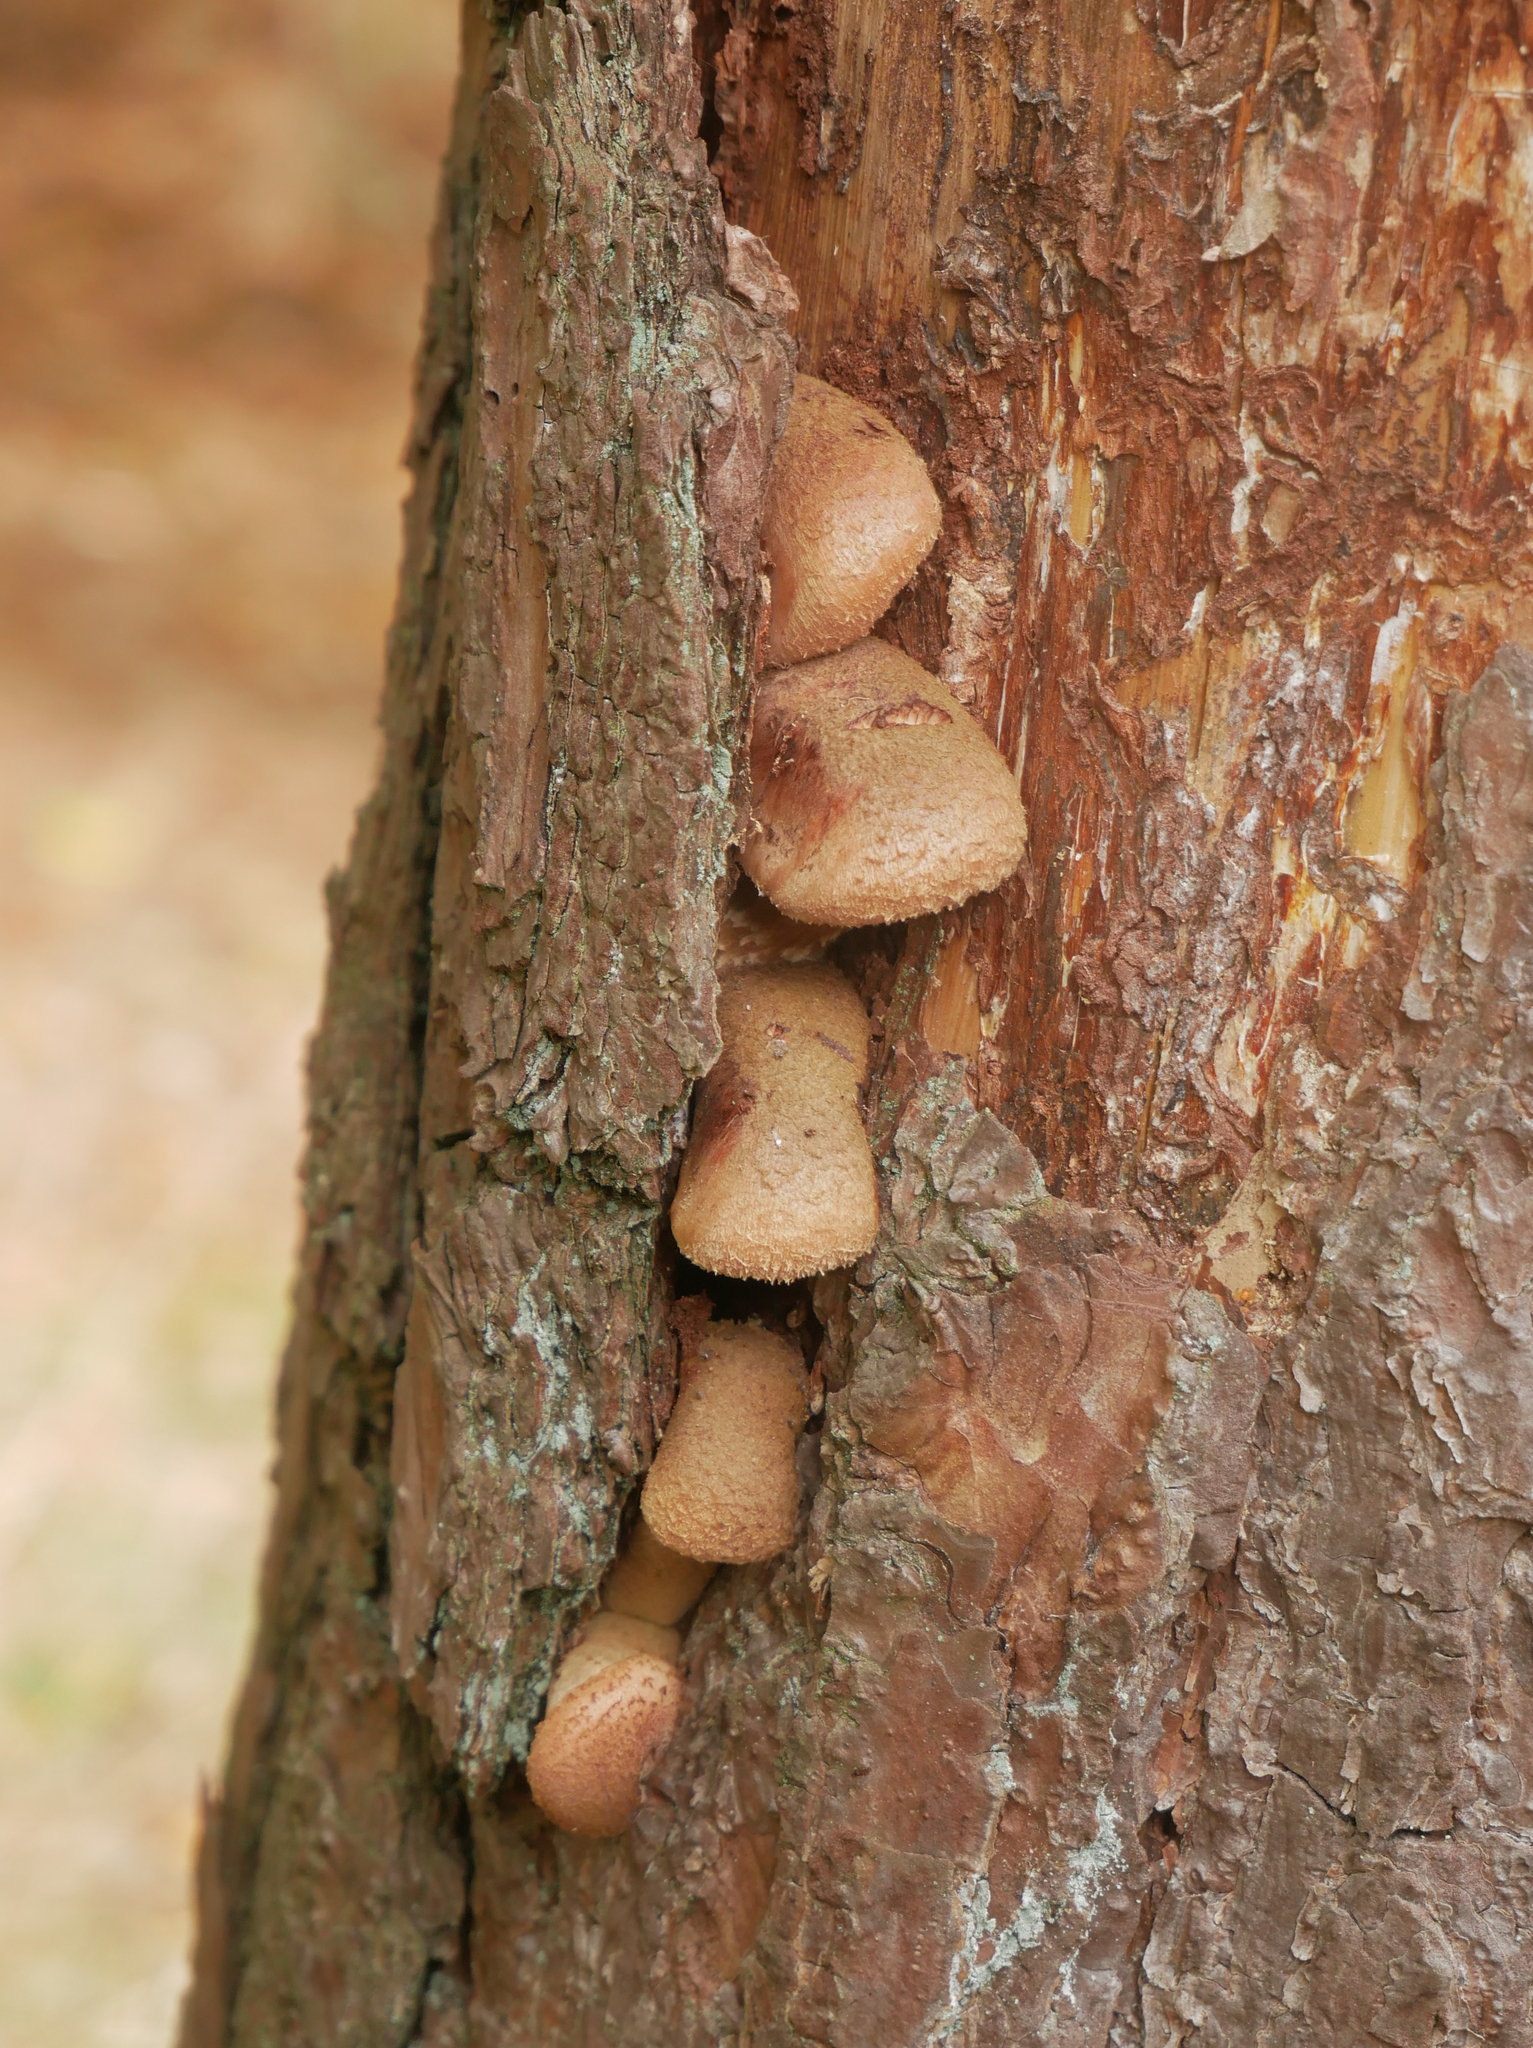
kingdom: Fungi
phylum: Basidiomycota
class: Agaricomycetes
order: Agaricales
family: Physalacriaceae
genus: Armillaria
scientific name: Armillaria ostoyae
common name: Dark honey fungus
